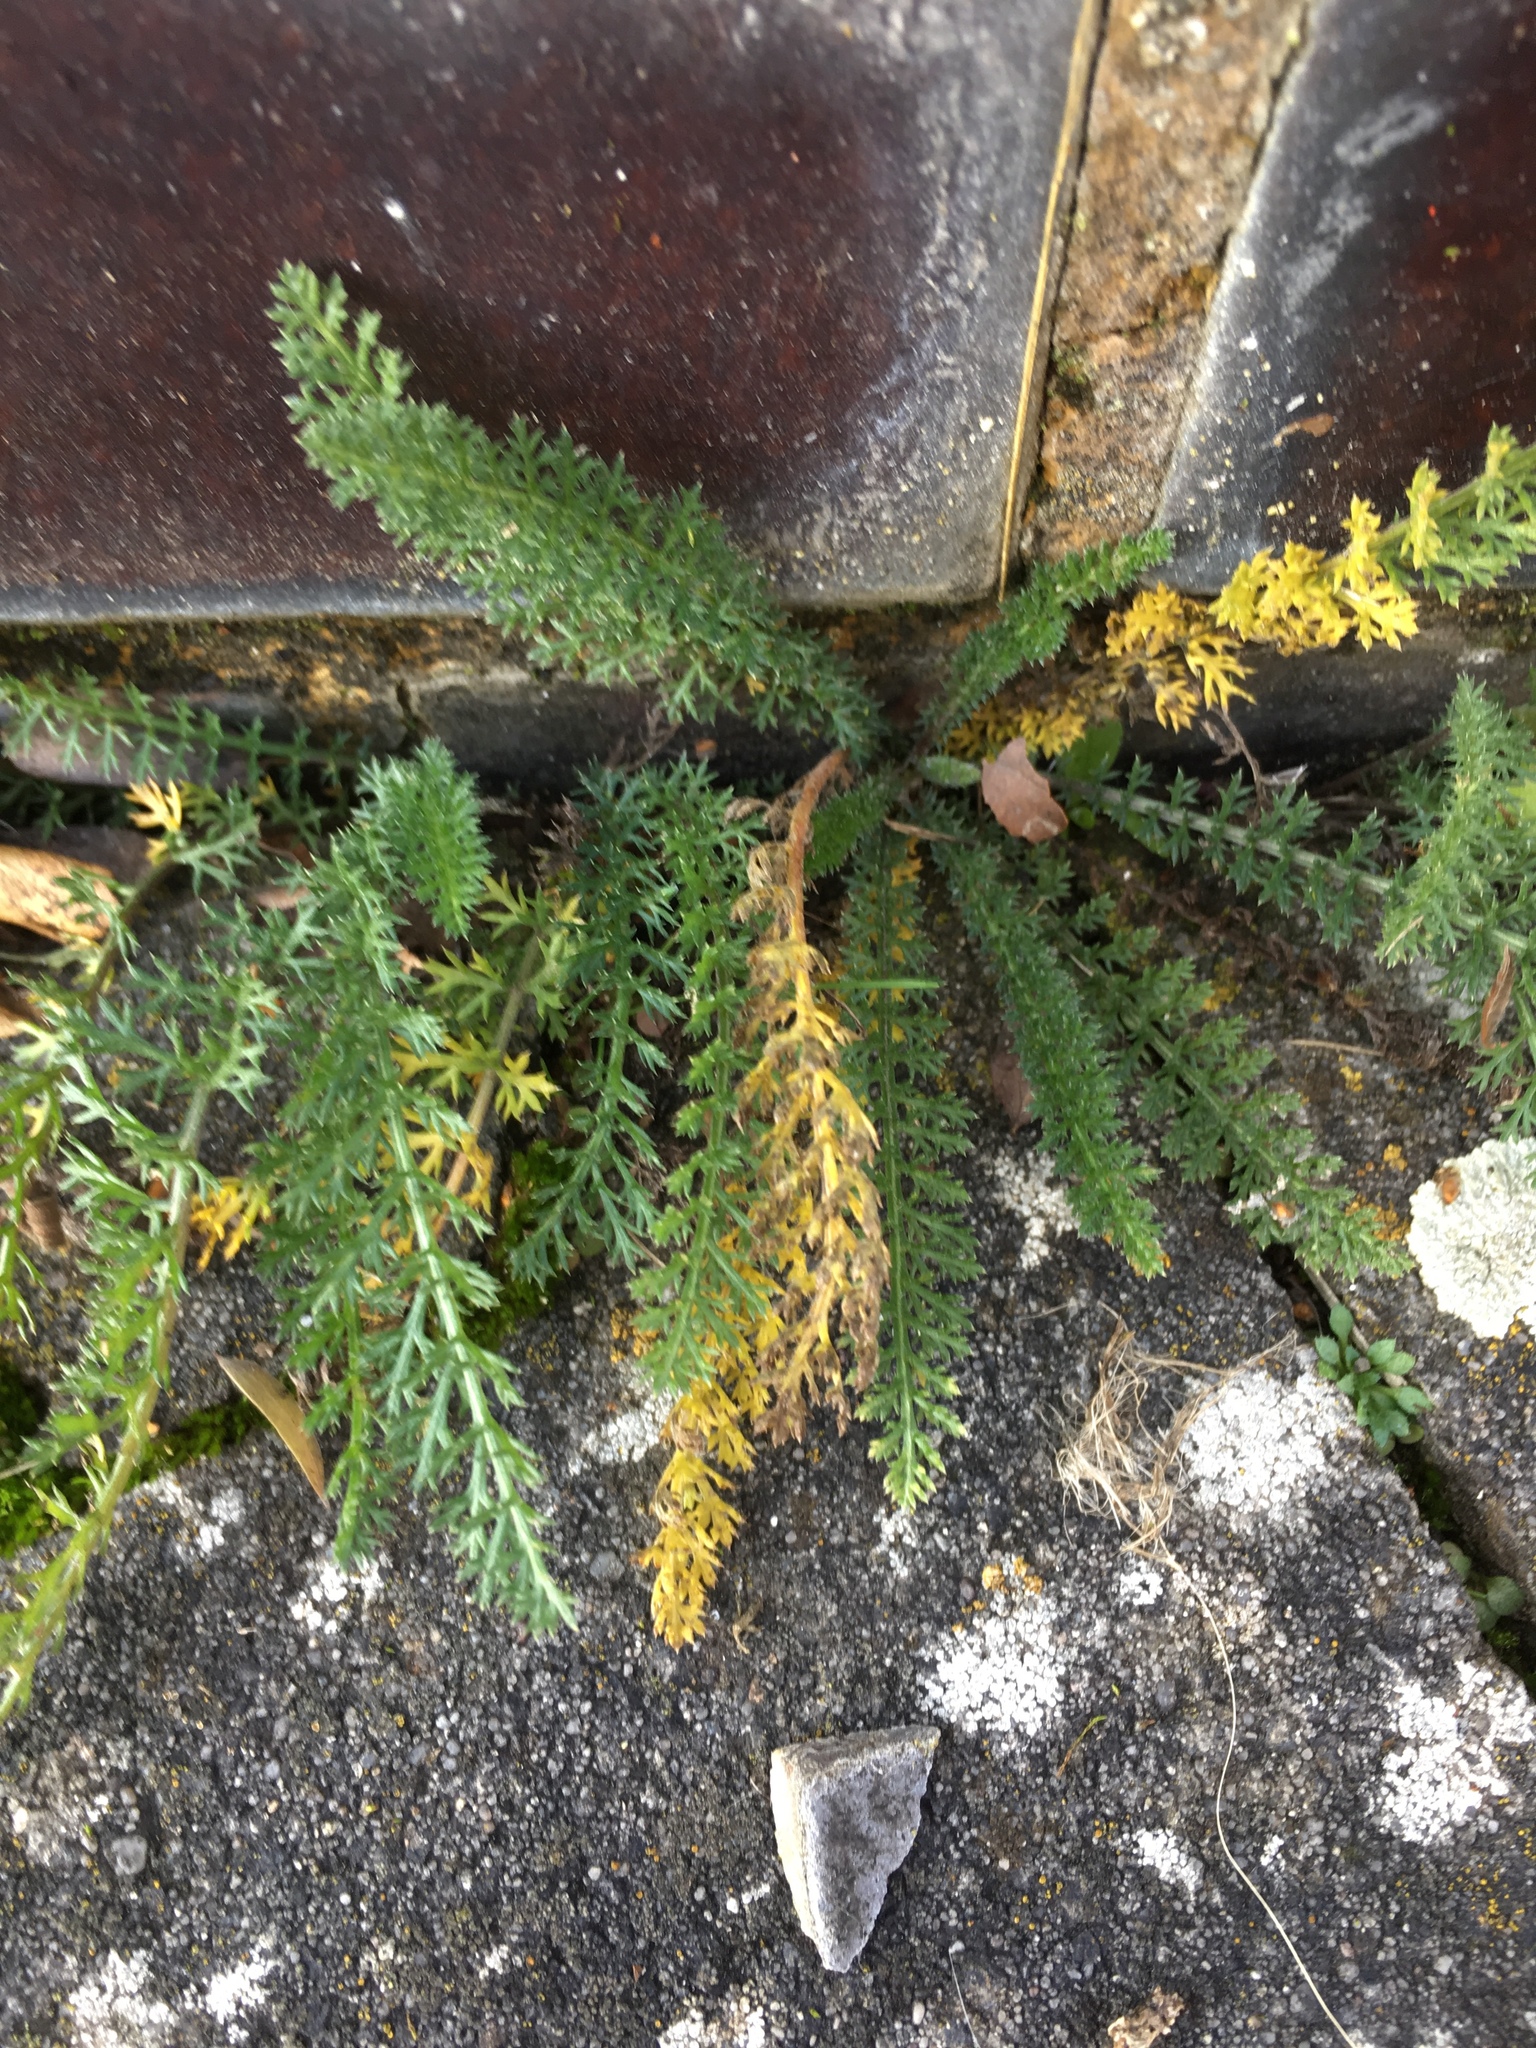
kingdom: Plantae
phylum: Tracheophyta
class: Magnoliopsida
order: Asterales
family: Asteraceae
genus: Achillea
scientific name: Achillea millefolium
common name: Yarrow
